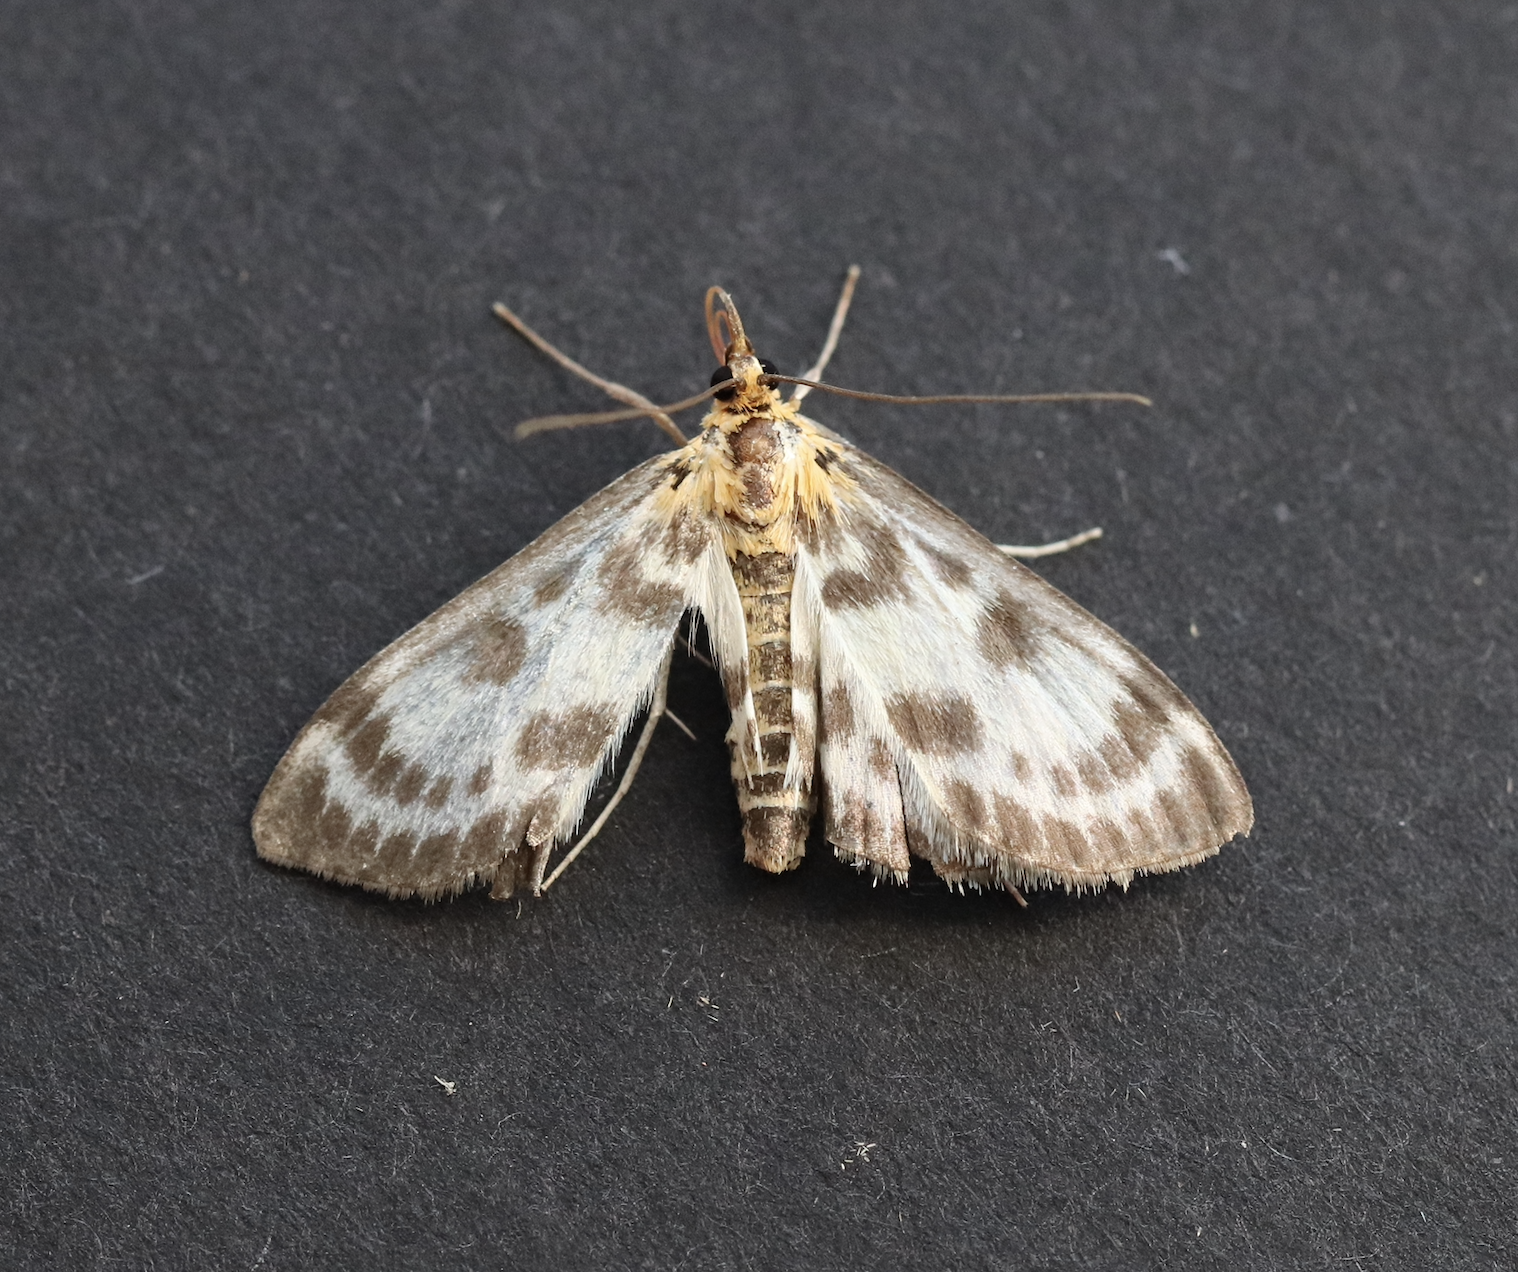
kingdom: Animalia
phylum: Arthropoda
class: Insecta
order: Lepidoptera
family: Crambidae
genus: Anania
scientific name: Anania hortulata
